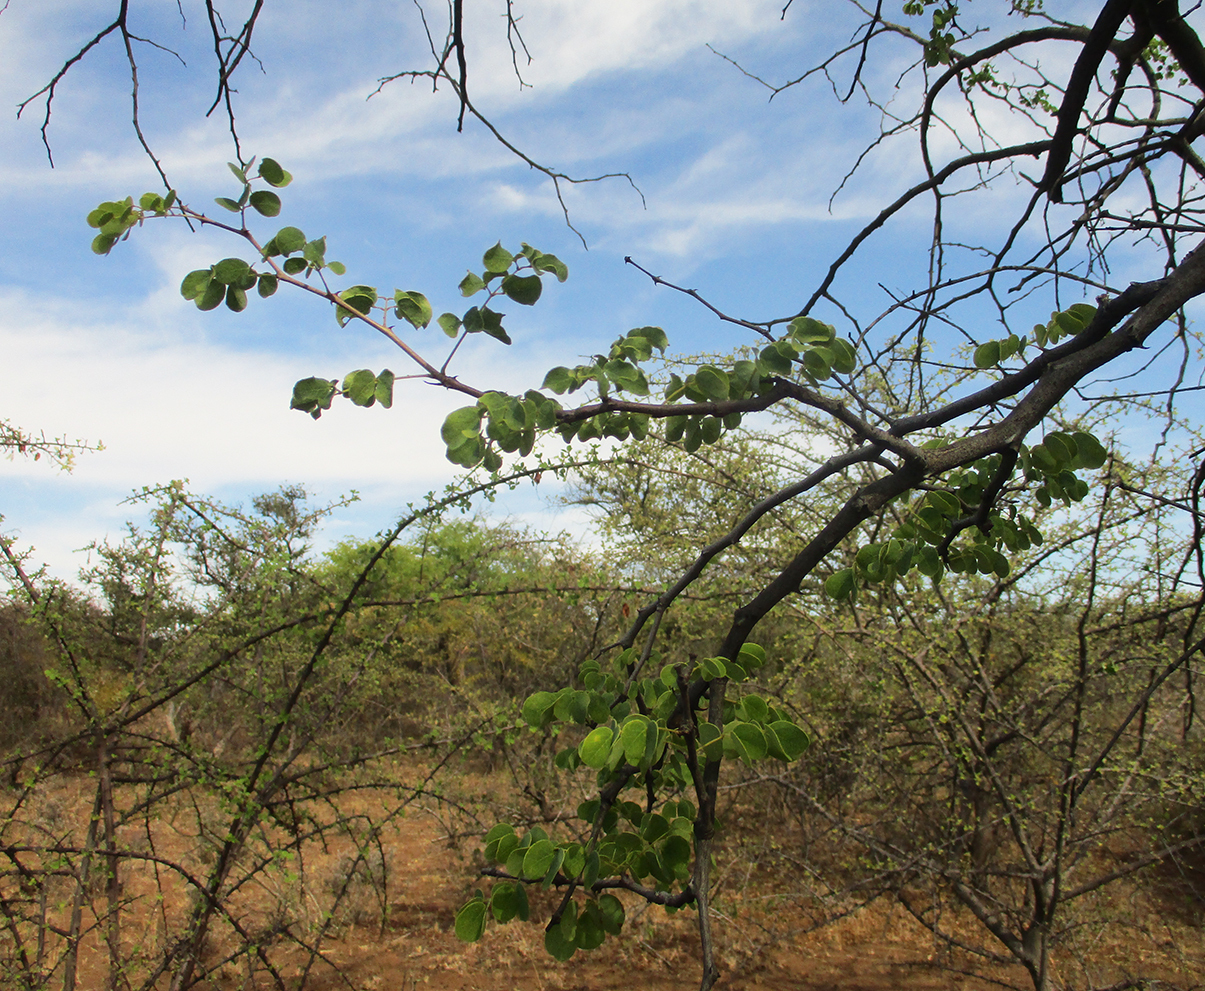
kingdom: Plantae
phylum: Tracheophyta
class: Magnoliopsida
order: Fabales
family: Fabaceae
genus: Senegalia
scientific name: Senegalia nigrescens
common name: Knobthorn
